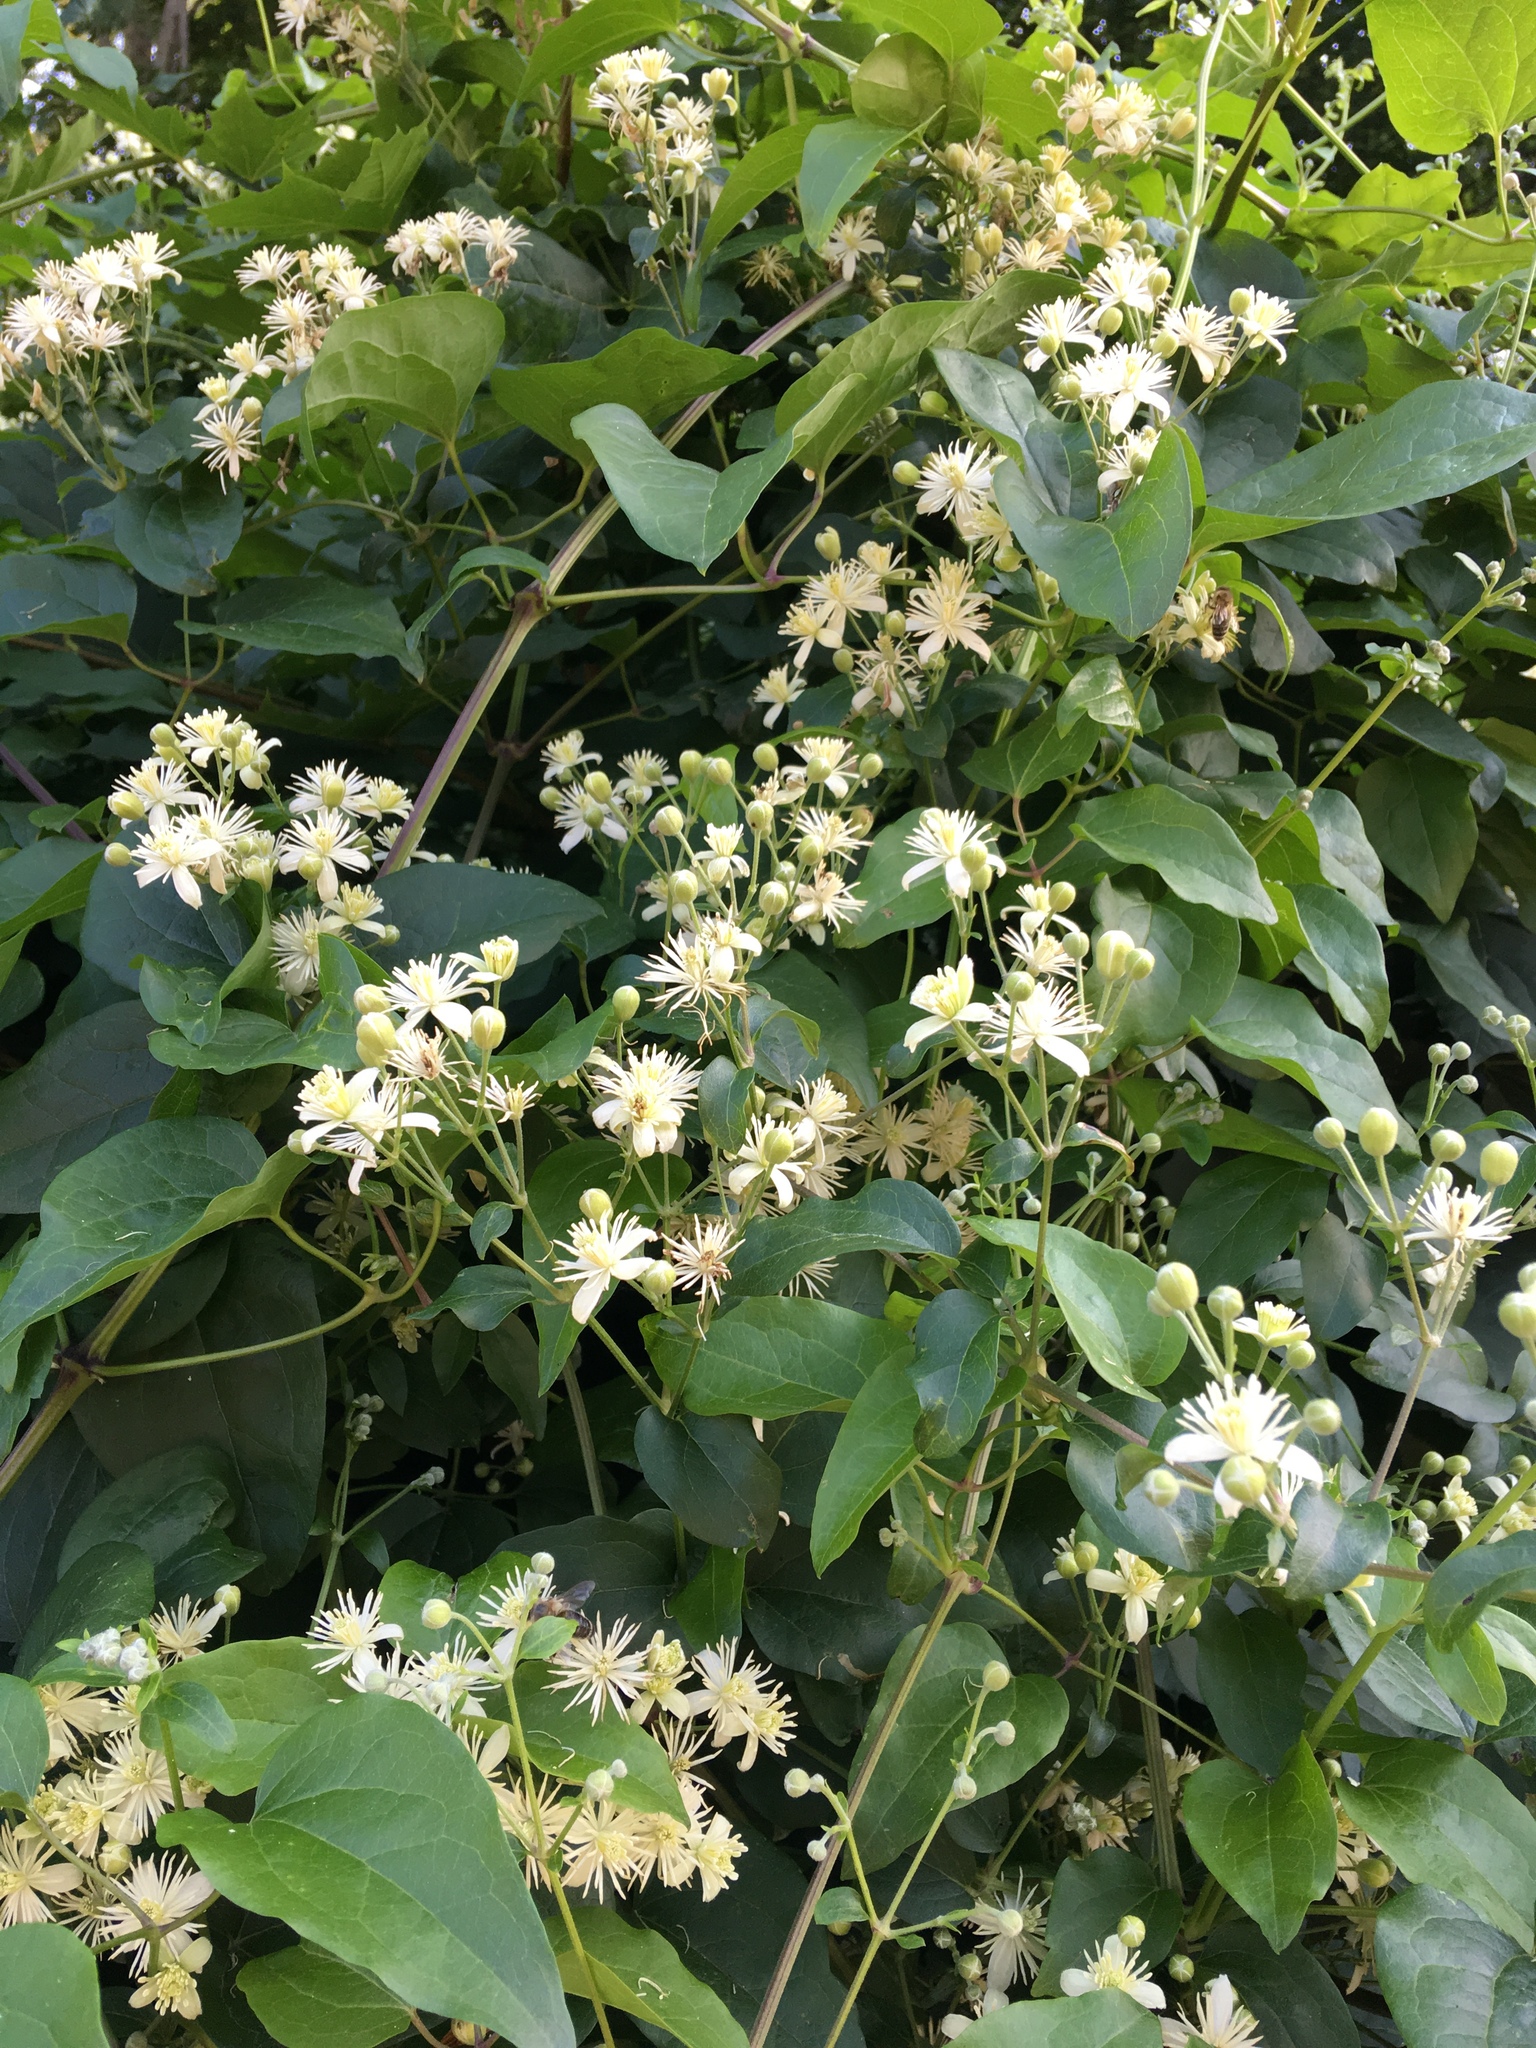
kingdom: Plantae
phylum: Tracheophyta
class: Magnoliopsida
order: Ranunculales
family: Ranunculaceae
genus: Clematis
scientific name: Clematis vitalba
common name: Evergreen clematis
